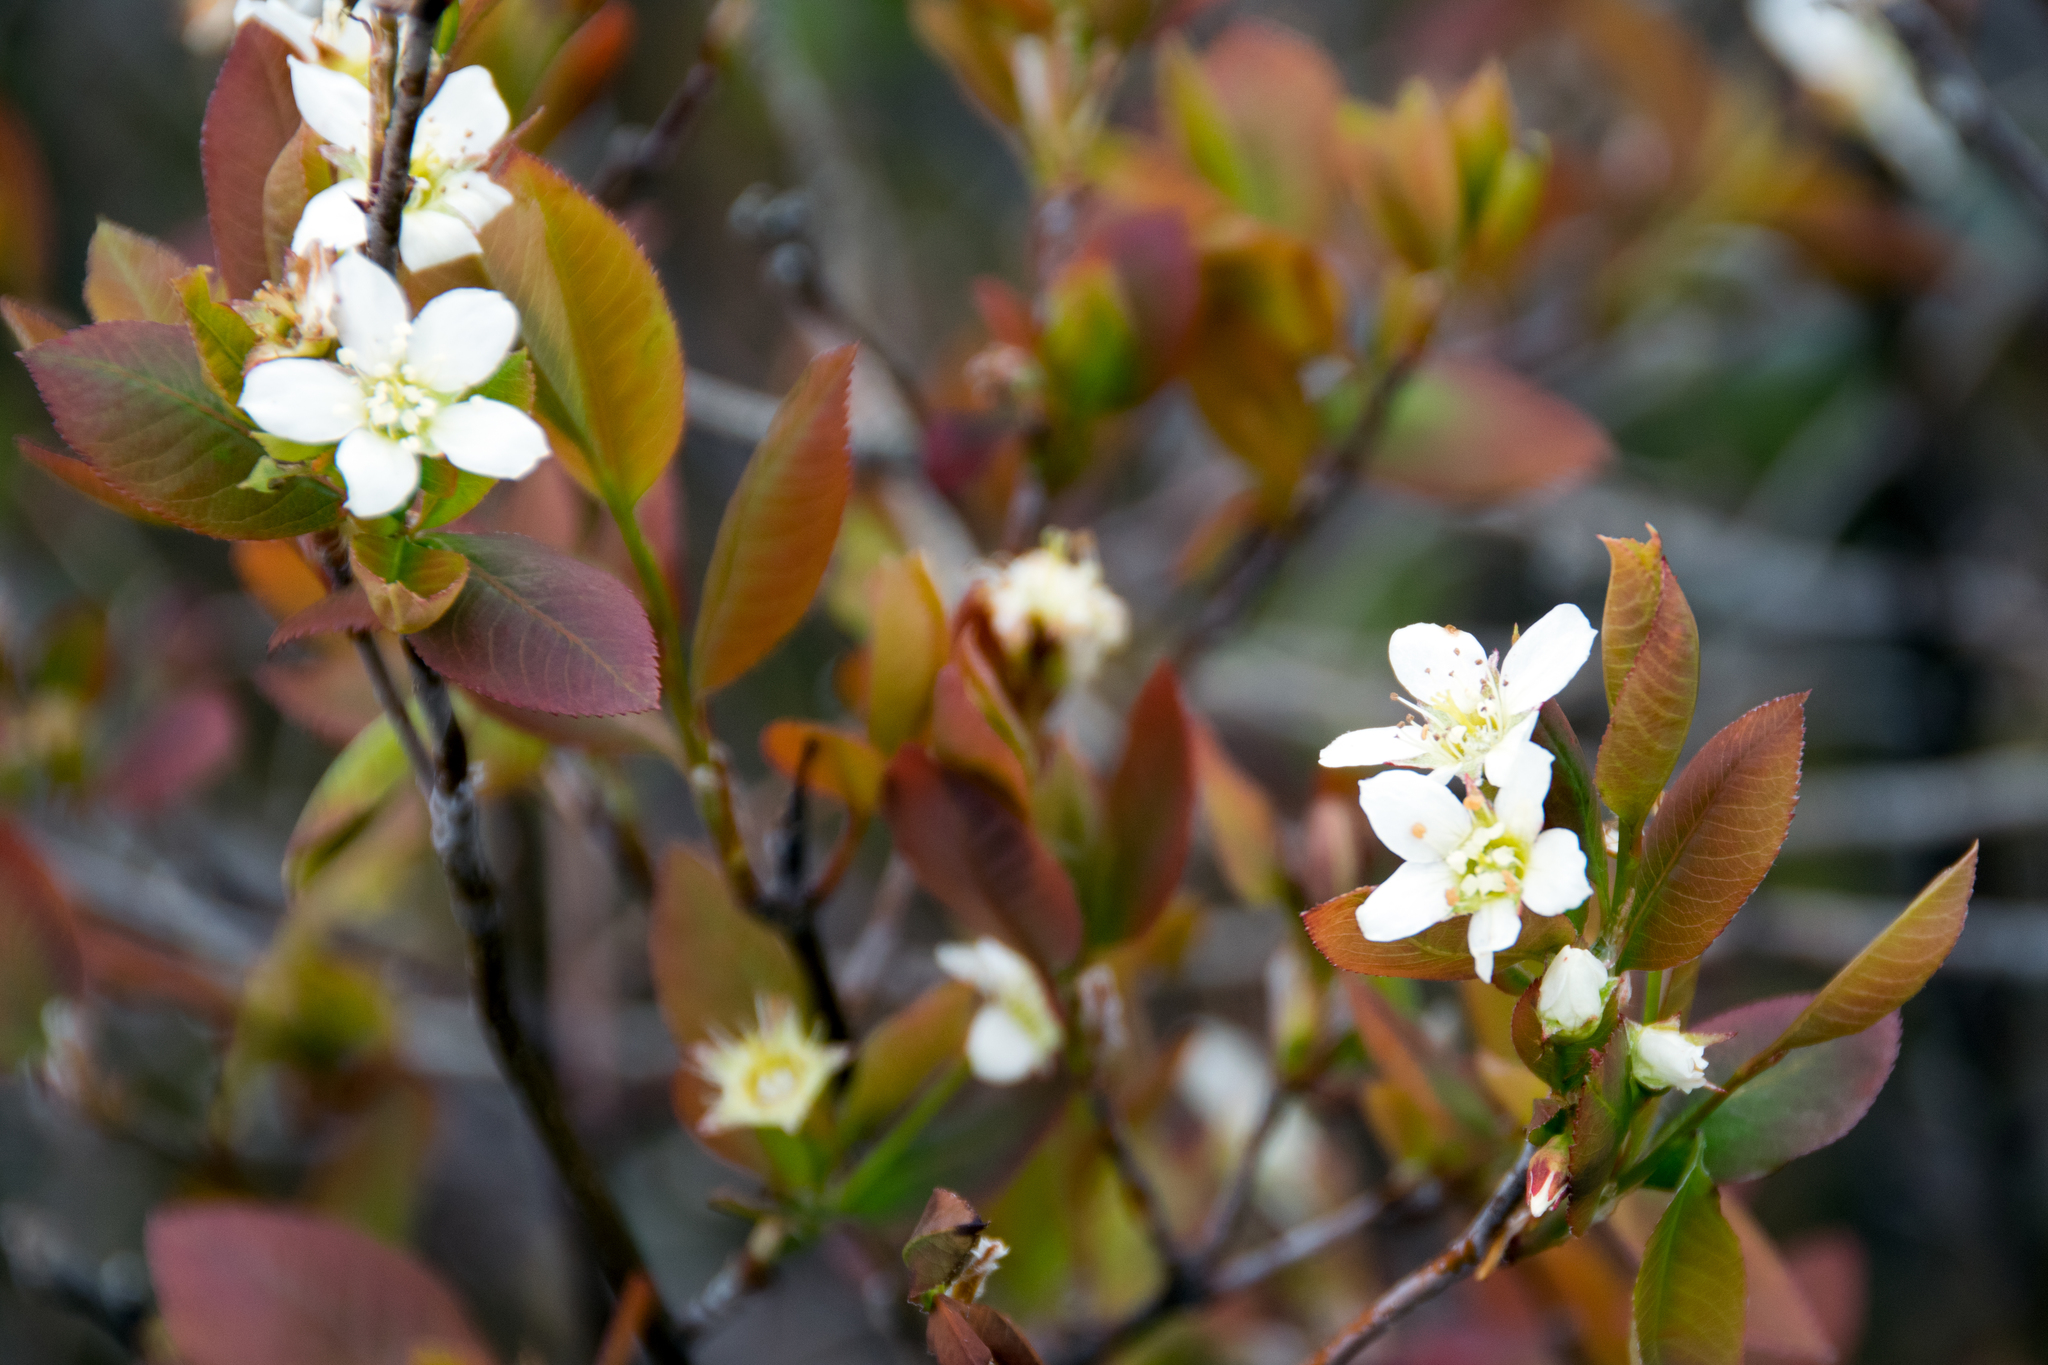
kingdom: Plantae
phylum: Tracheophyta
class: Magnoliopsida
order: Rosales
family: Rosaceae
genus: Amelanchier
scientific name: Amelanchier bartramiana
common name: Mountain serviceberry
